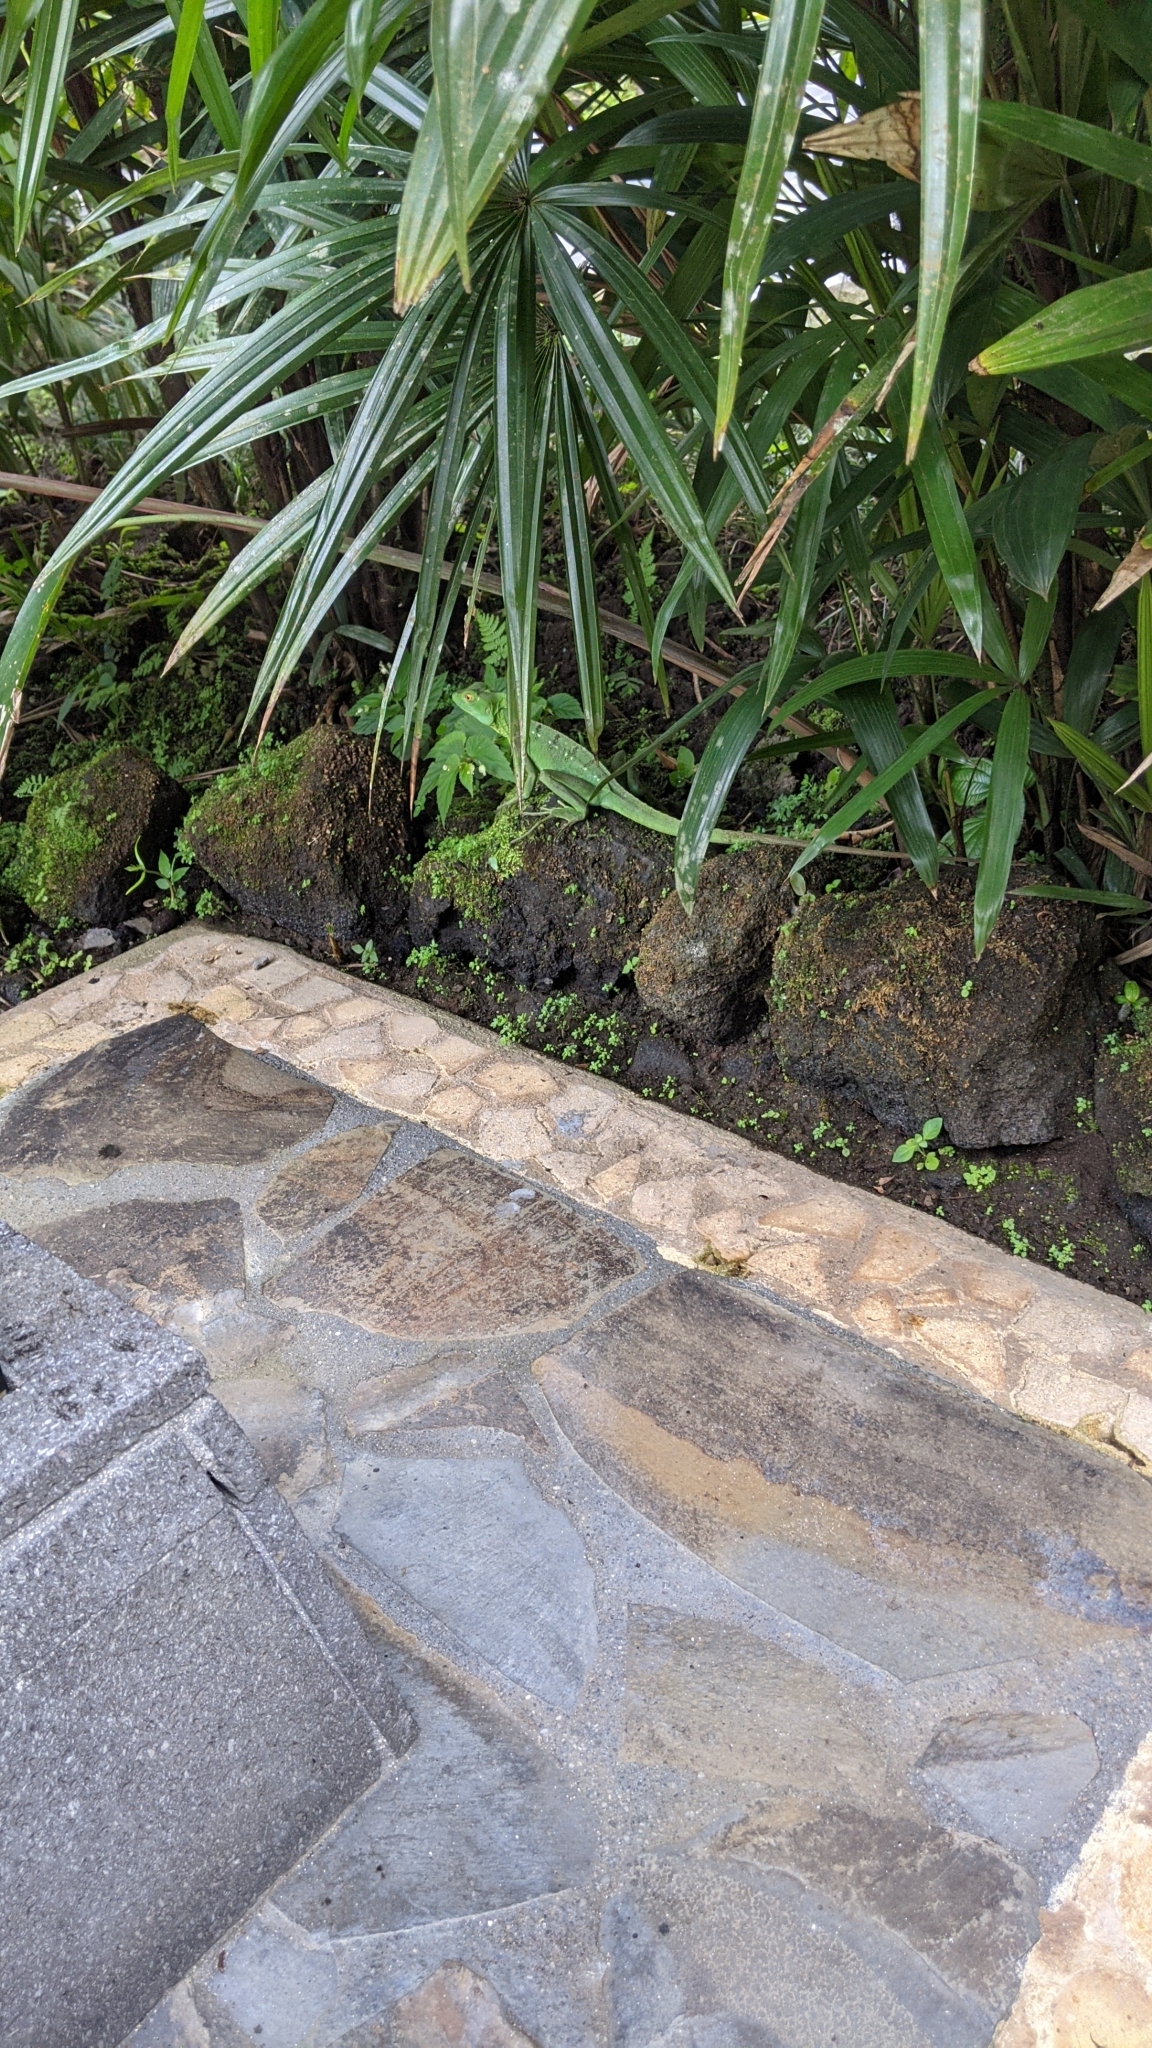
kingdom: Animalia
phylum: Chordata
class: Squamata
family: Corytophanidae
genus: Basiliscus
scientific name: Basiliscus plumifrons
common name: Green basilisk
